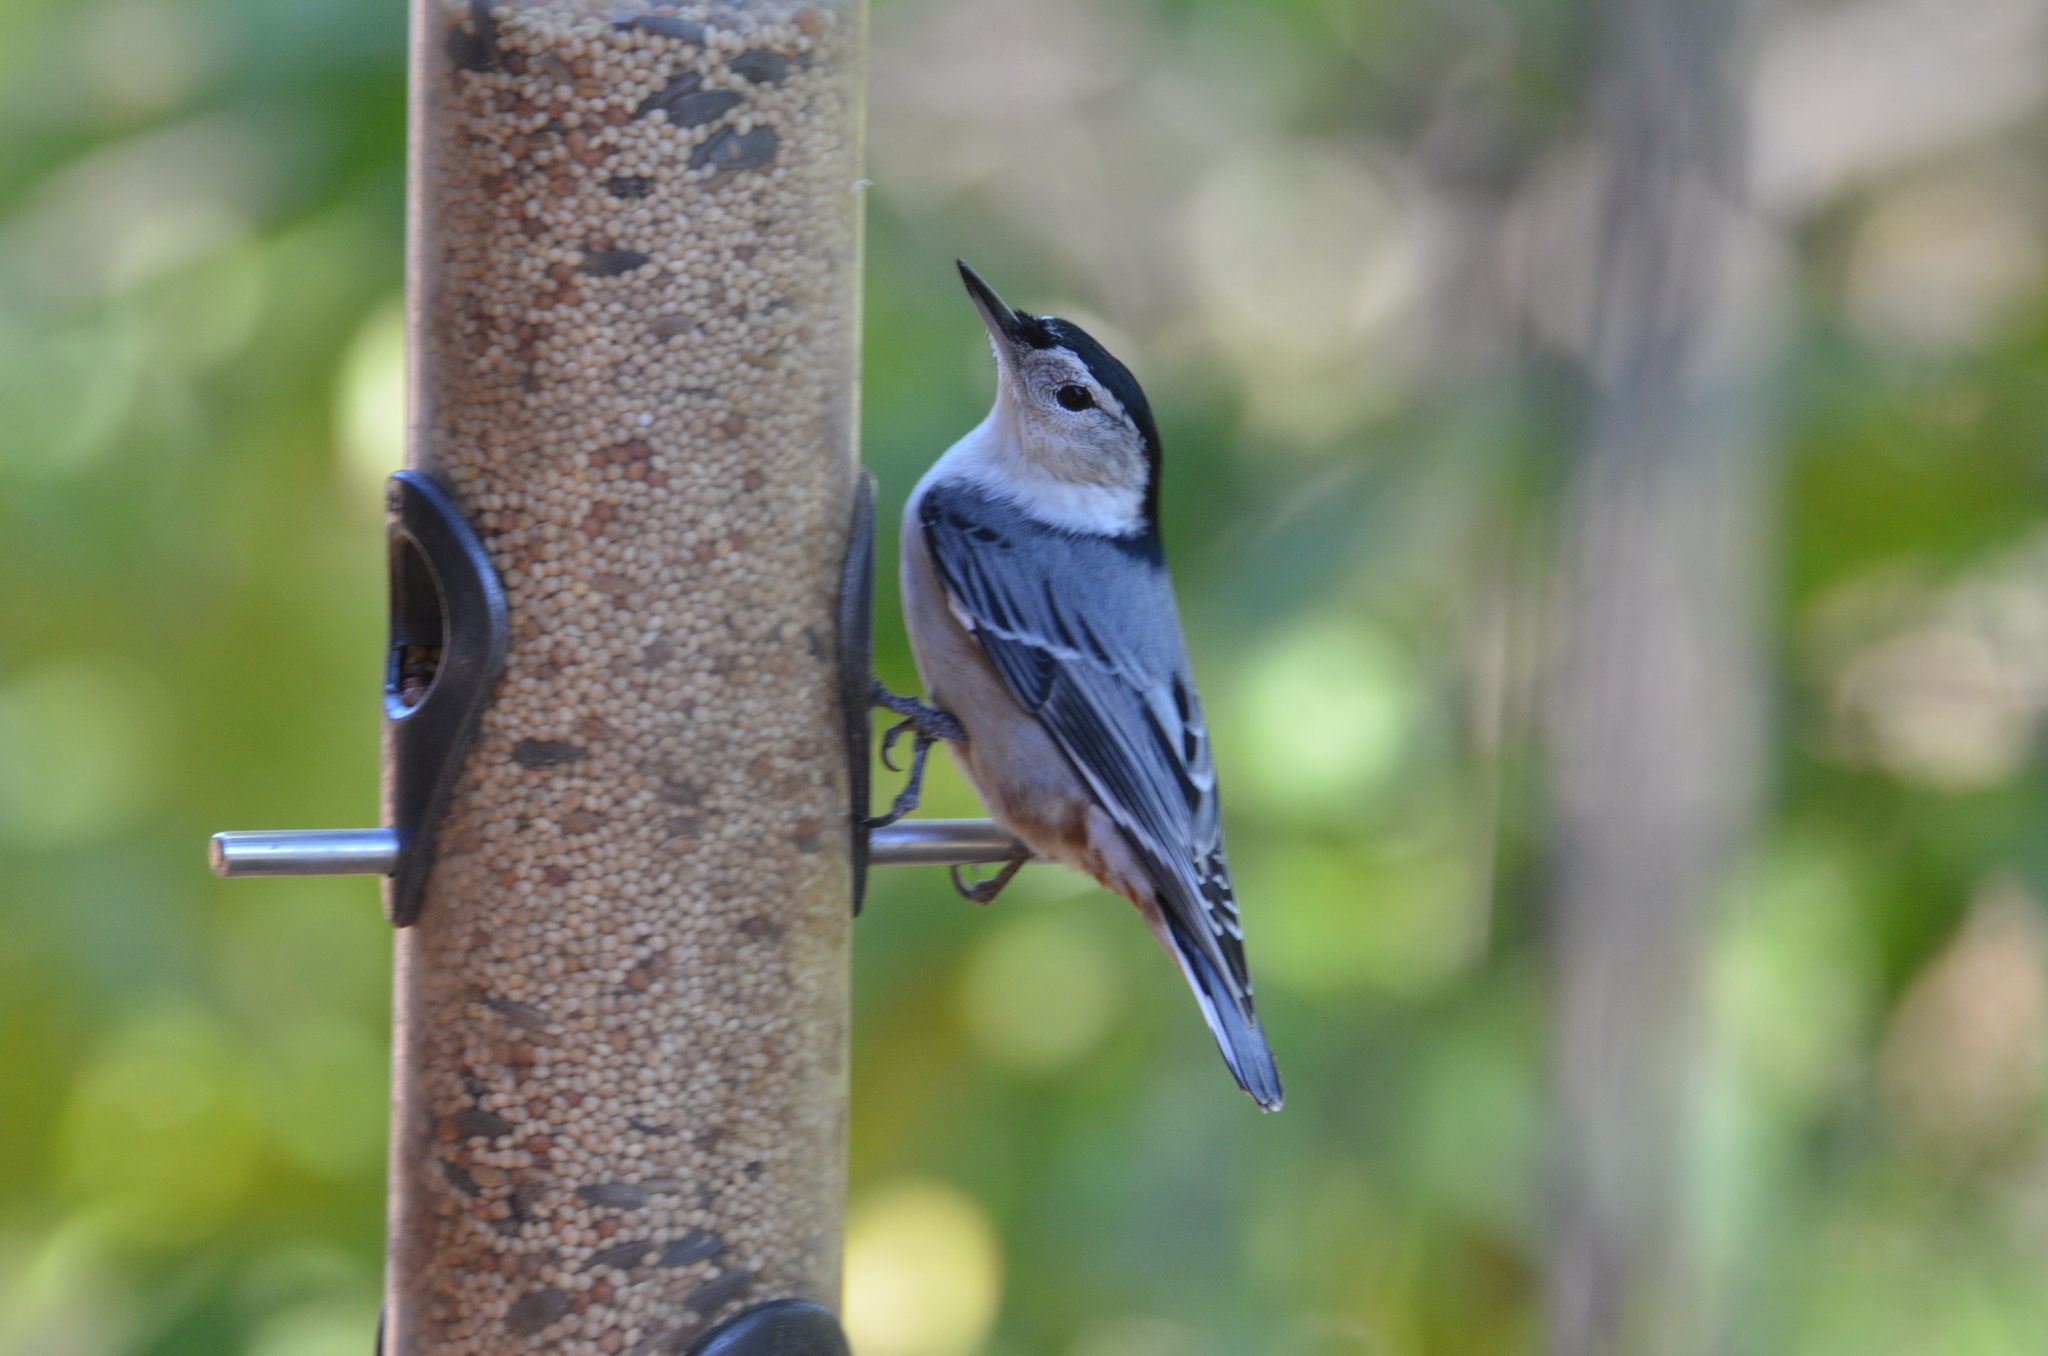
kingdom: Animalia
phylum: Chordata
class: Aves
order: Passeriformes
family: Sittidae
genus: Sitta
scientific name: Sitta carolinensis
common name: White-breasted nuthatch
